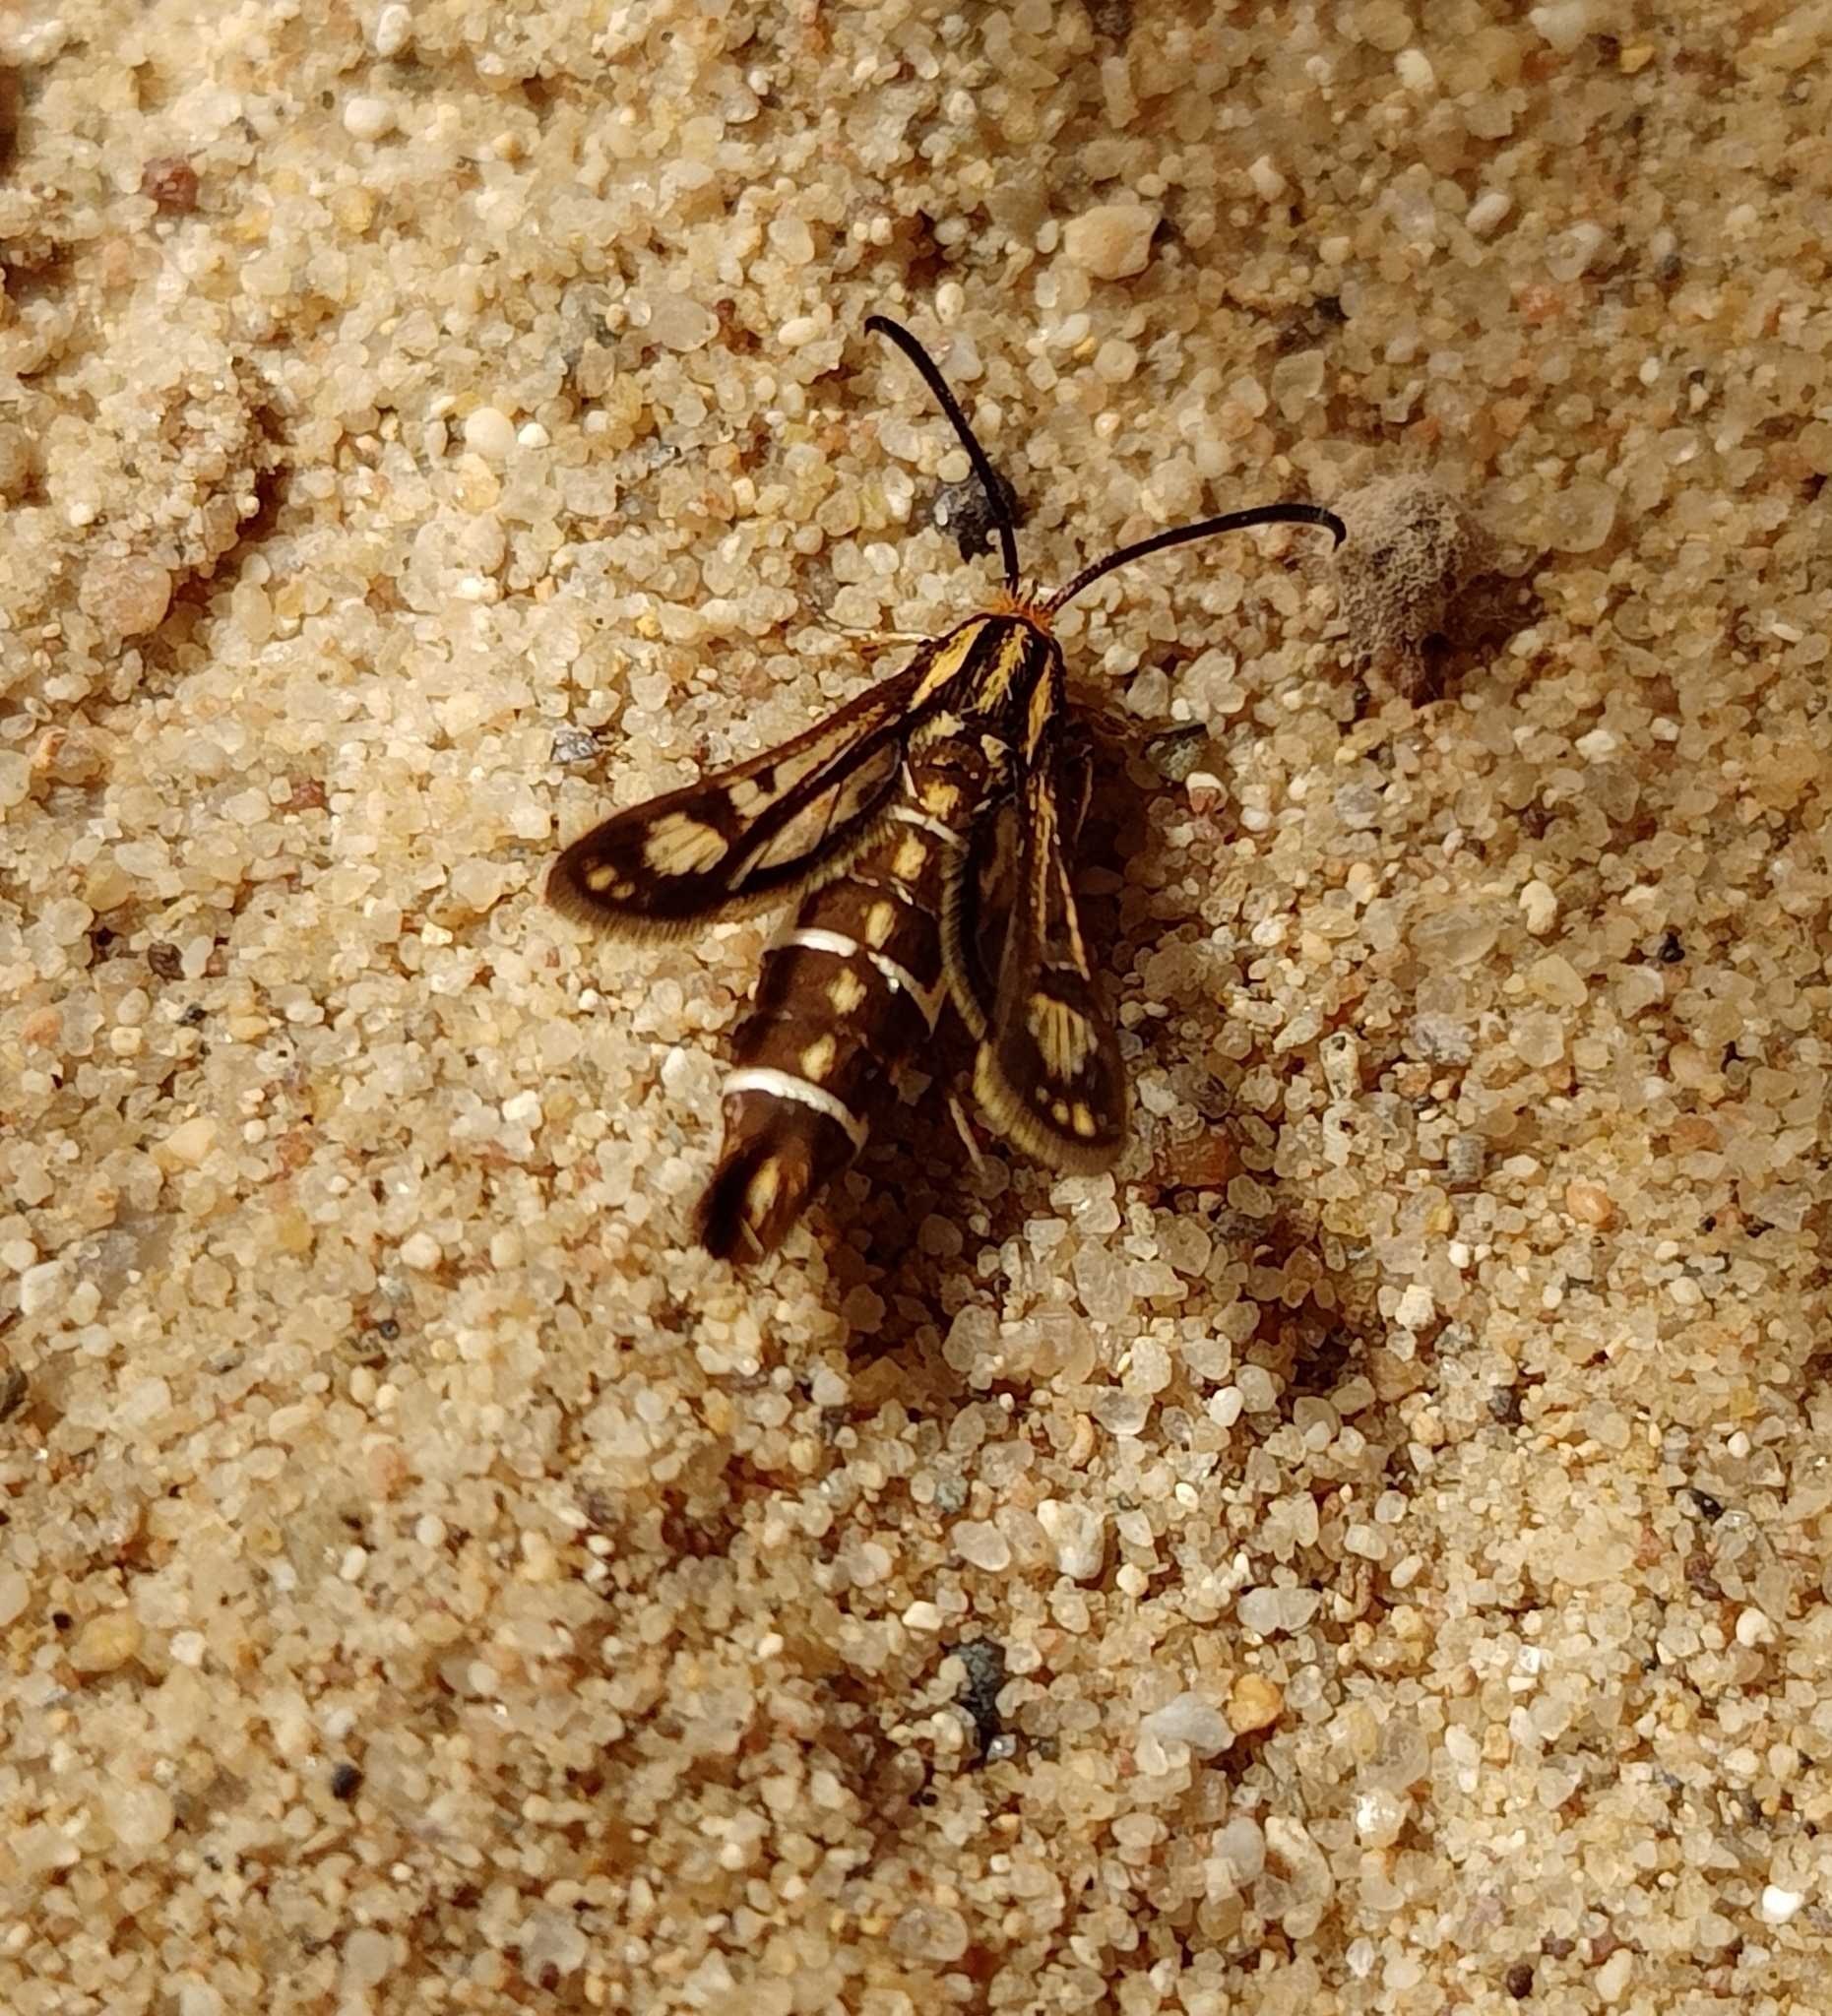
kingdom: Animalia
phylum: Arthropoda
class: Insecta
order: Lepidoptera
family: Sesiidae
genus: Pyropteron
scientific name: Pyropteron triannuliformis
